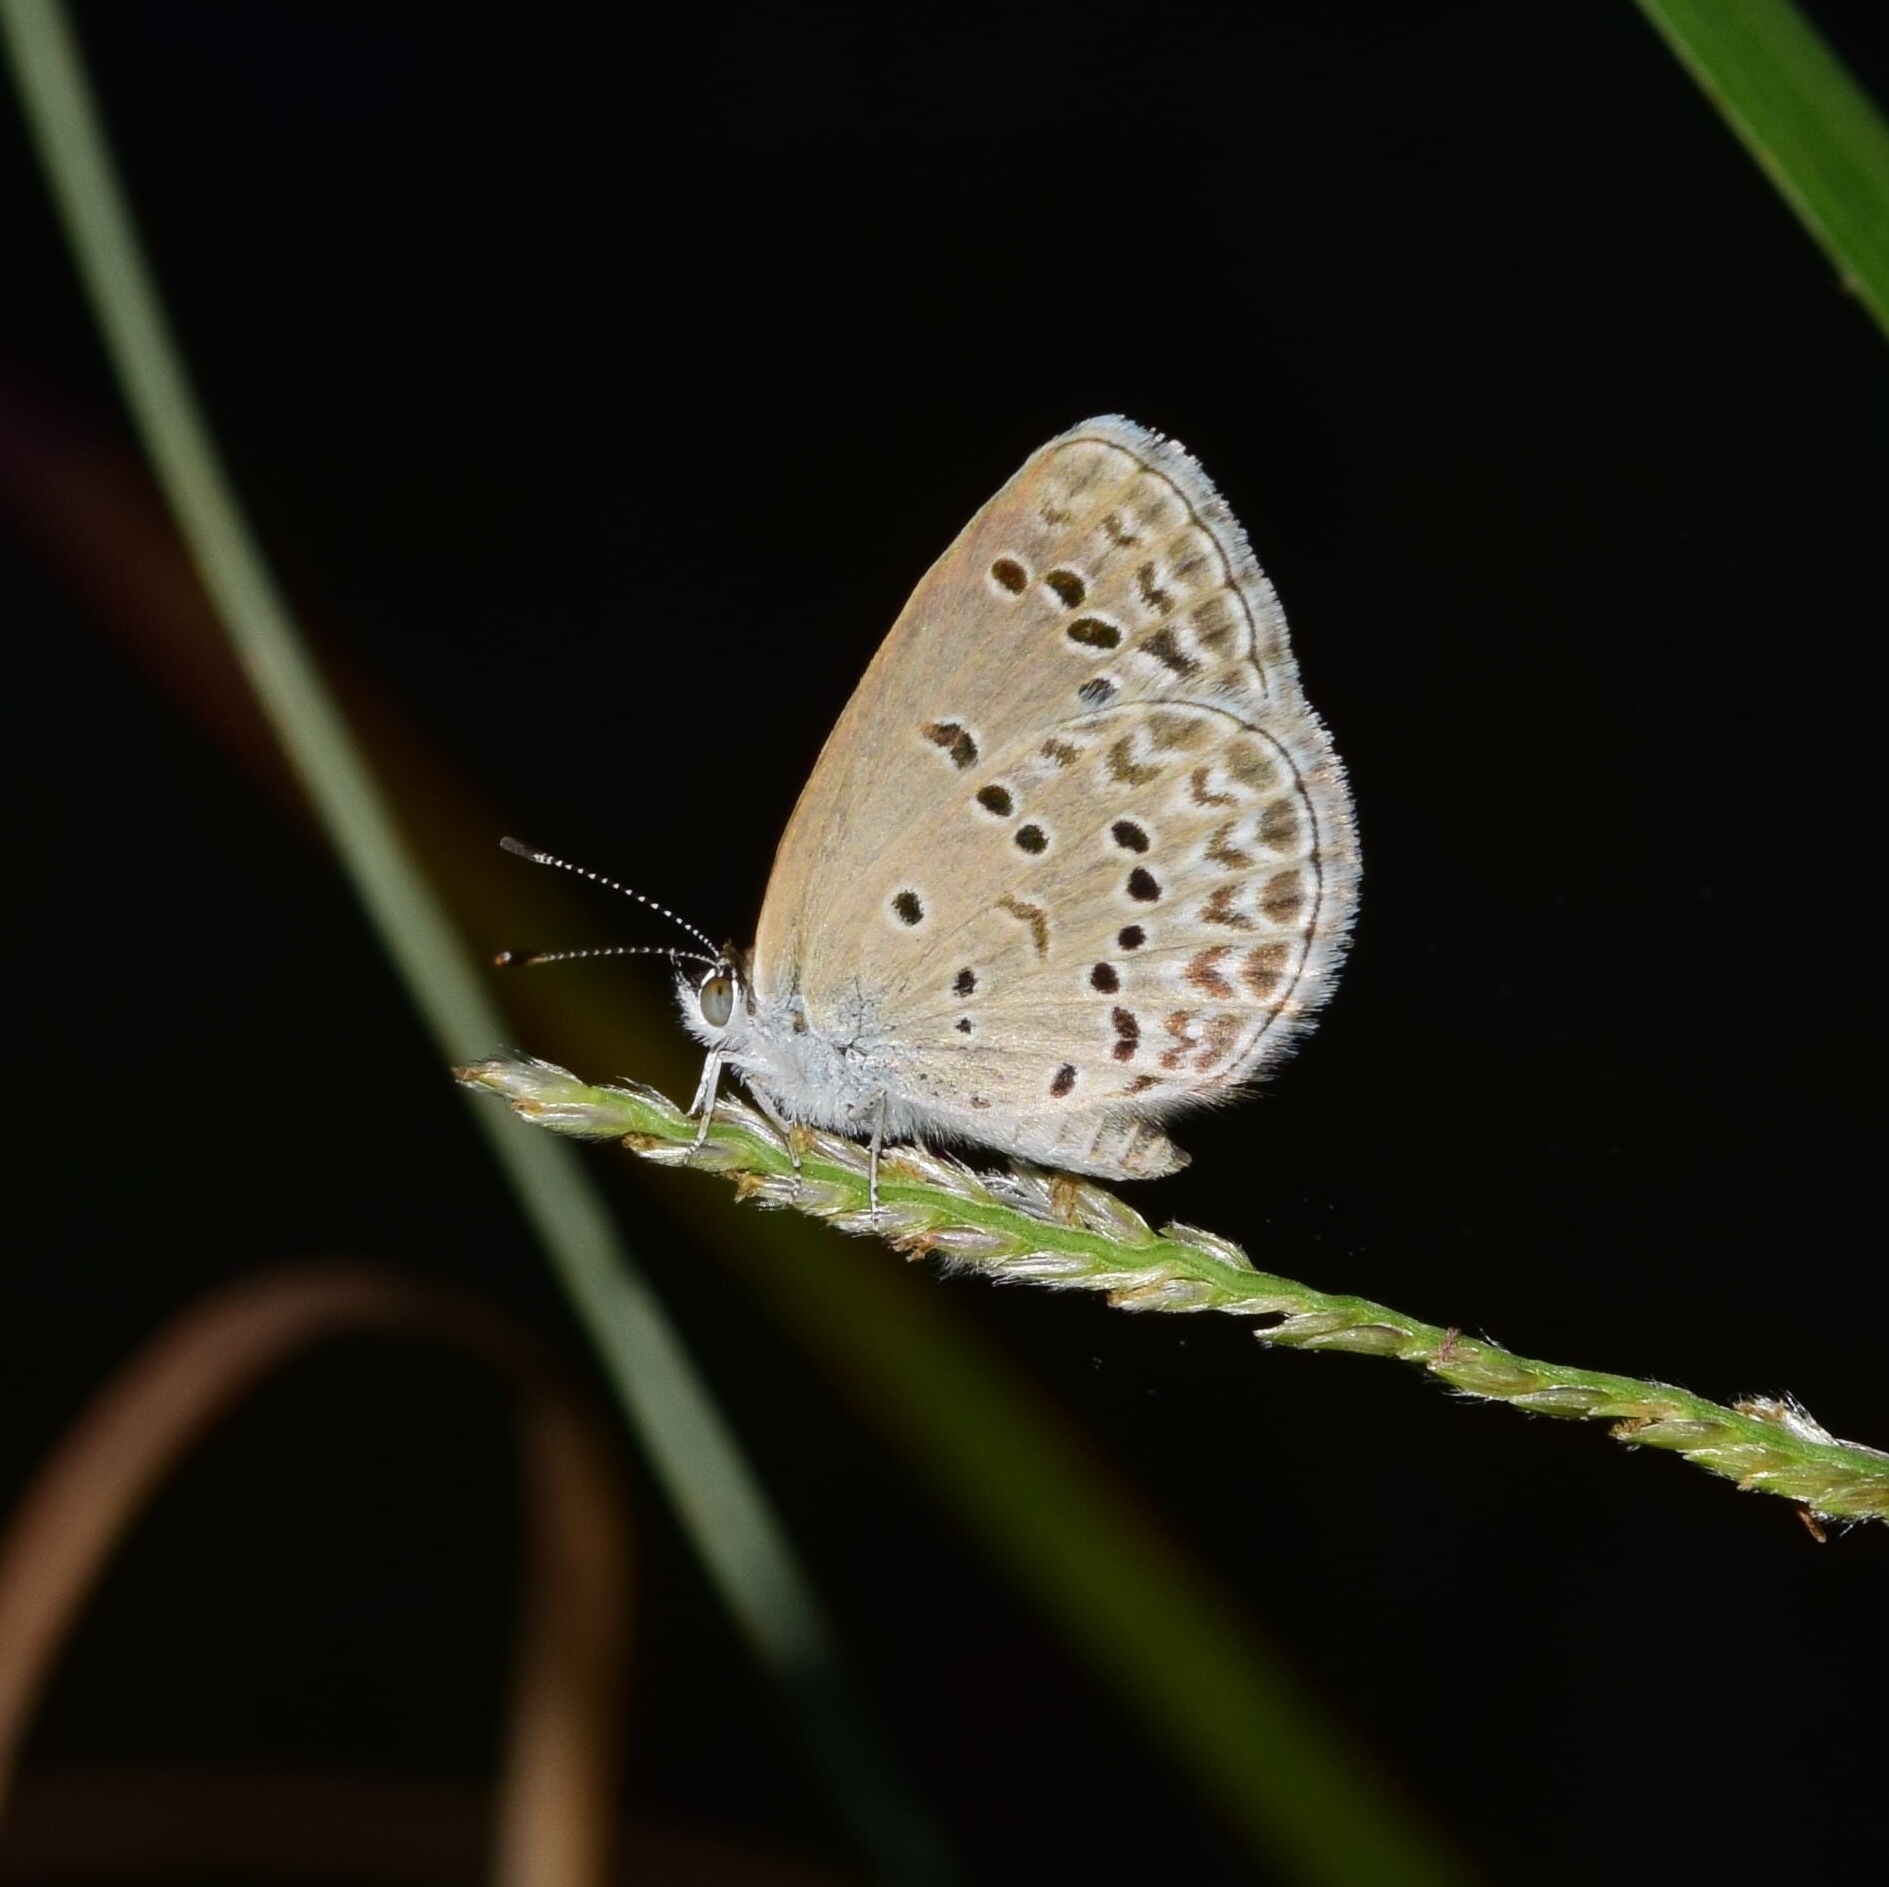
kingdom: Animalia
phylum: Arthropoda
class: Insecta
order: Lepidoptera
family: Lycaenidae
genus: Zizina
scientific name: Zizina antanossa
